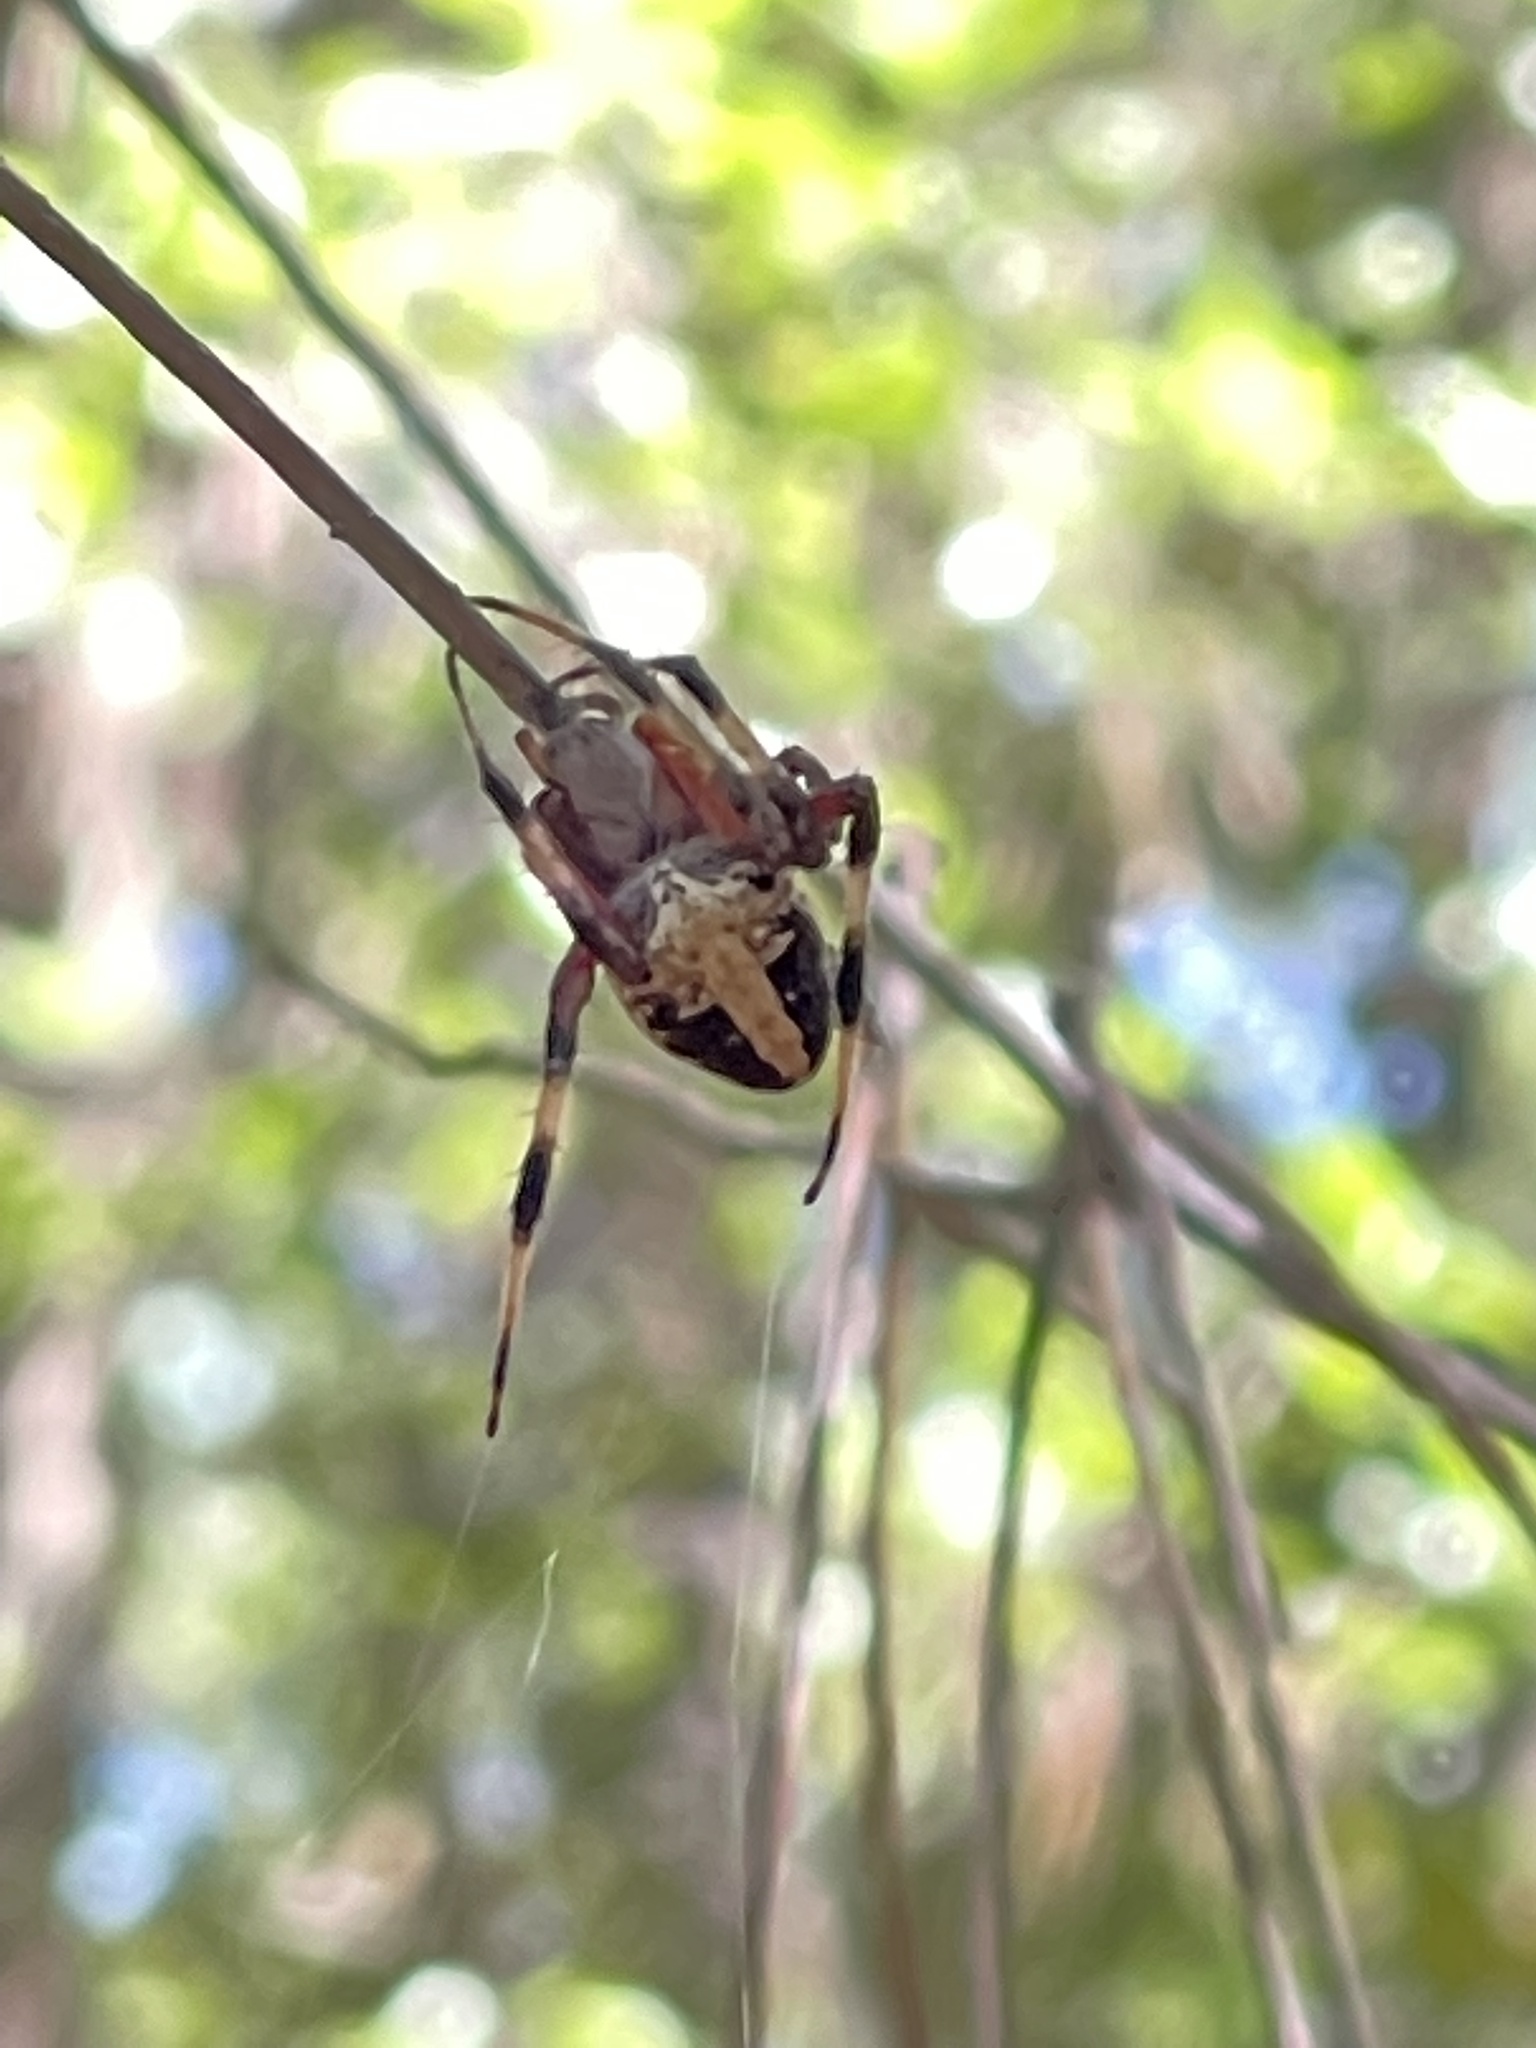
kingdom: Animalia
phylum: Arthropoda
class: Arachnida
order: Araneae
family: Araneidae
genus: Neoscona
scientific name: Neoscona domiciliorum
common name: Red-femured spotted orbweaver
